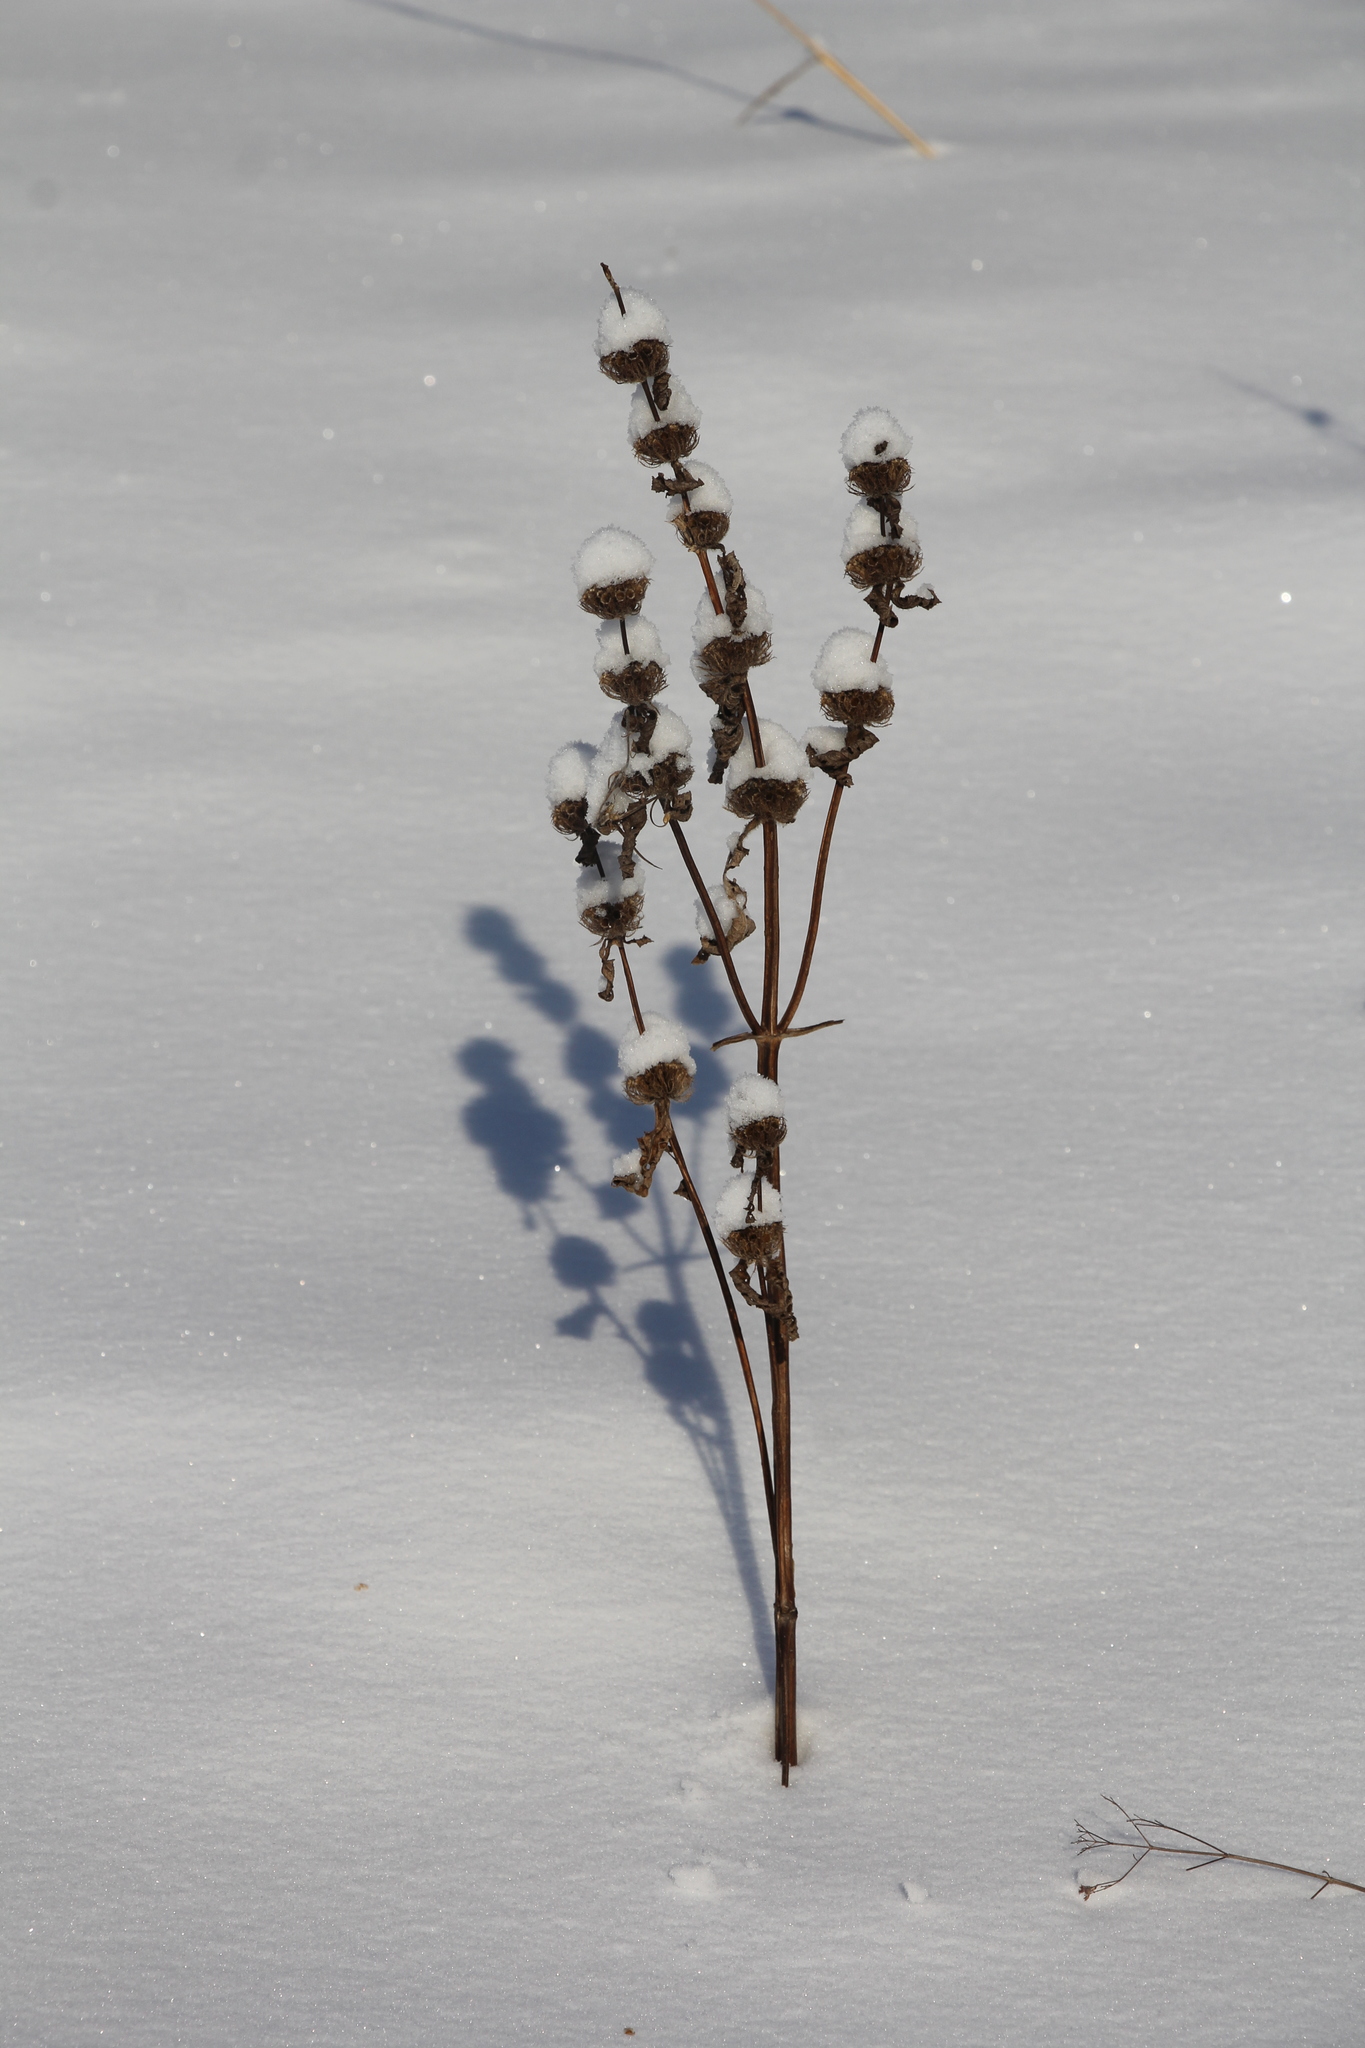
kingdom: Plantae
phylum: Tracheophyta
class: Magnoliopsida
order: Lamiales
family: Lamiaceae
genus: Phlomoides
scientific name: Phlomoides tuberosa
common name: Tuberous jerusalem sage
